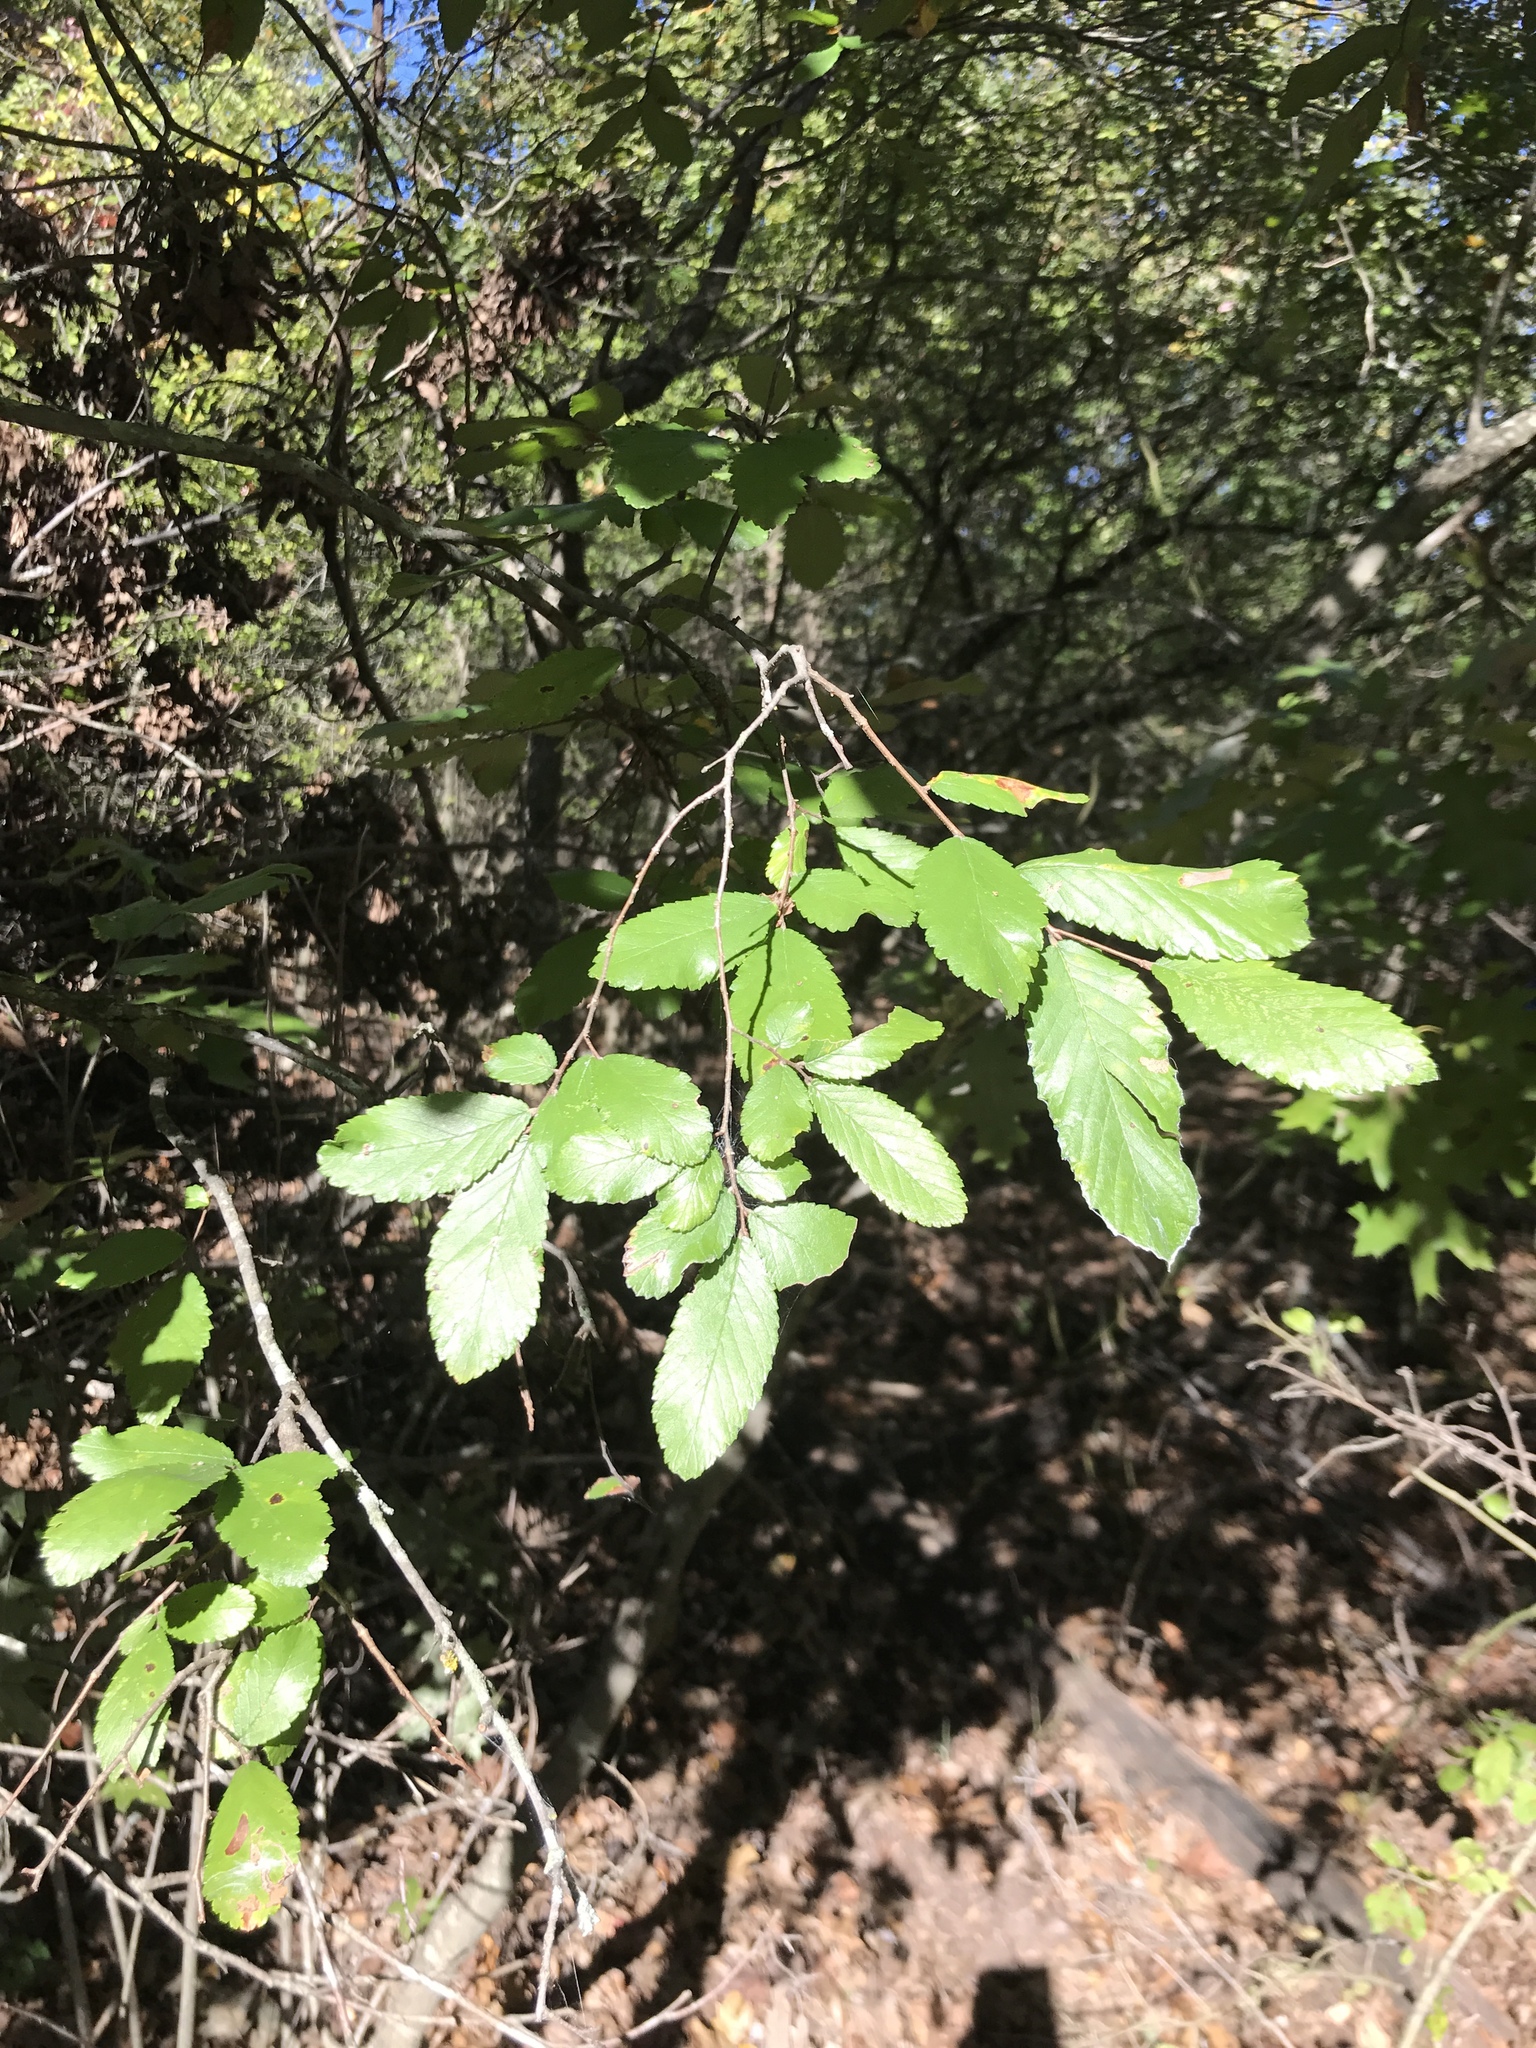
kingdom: Plantae
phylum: Tracheophyta
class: Magnoliopsida
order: Rosales
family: Ulmaceae
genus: Ulmus
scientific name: Ulmus crassifolia
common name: Basket elm
